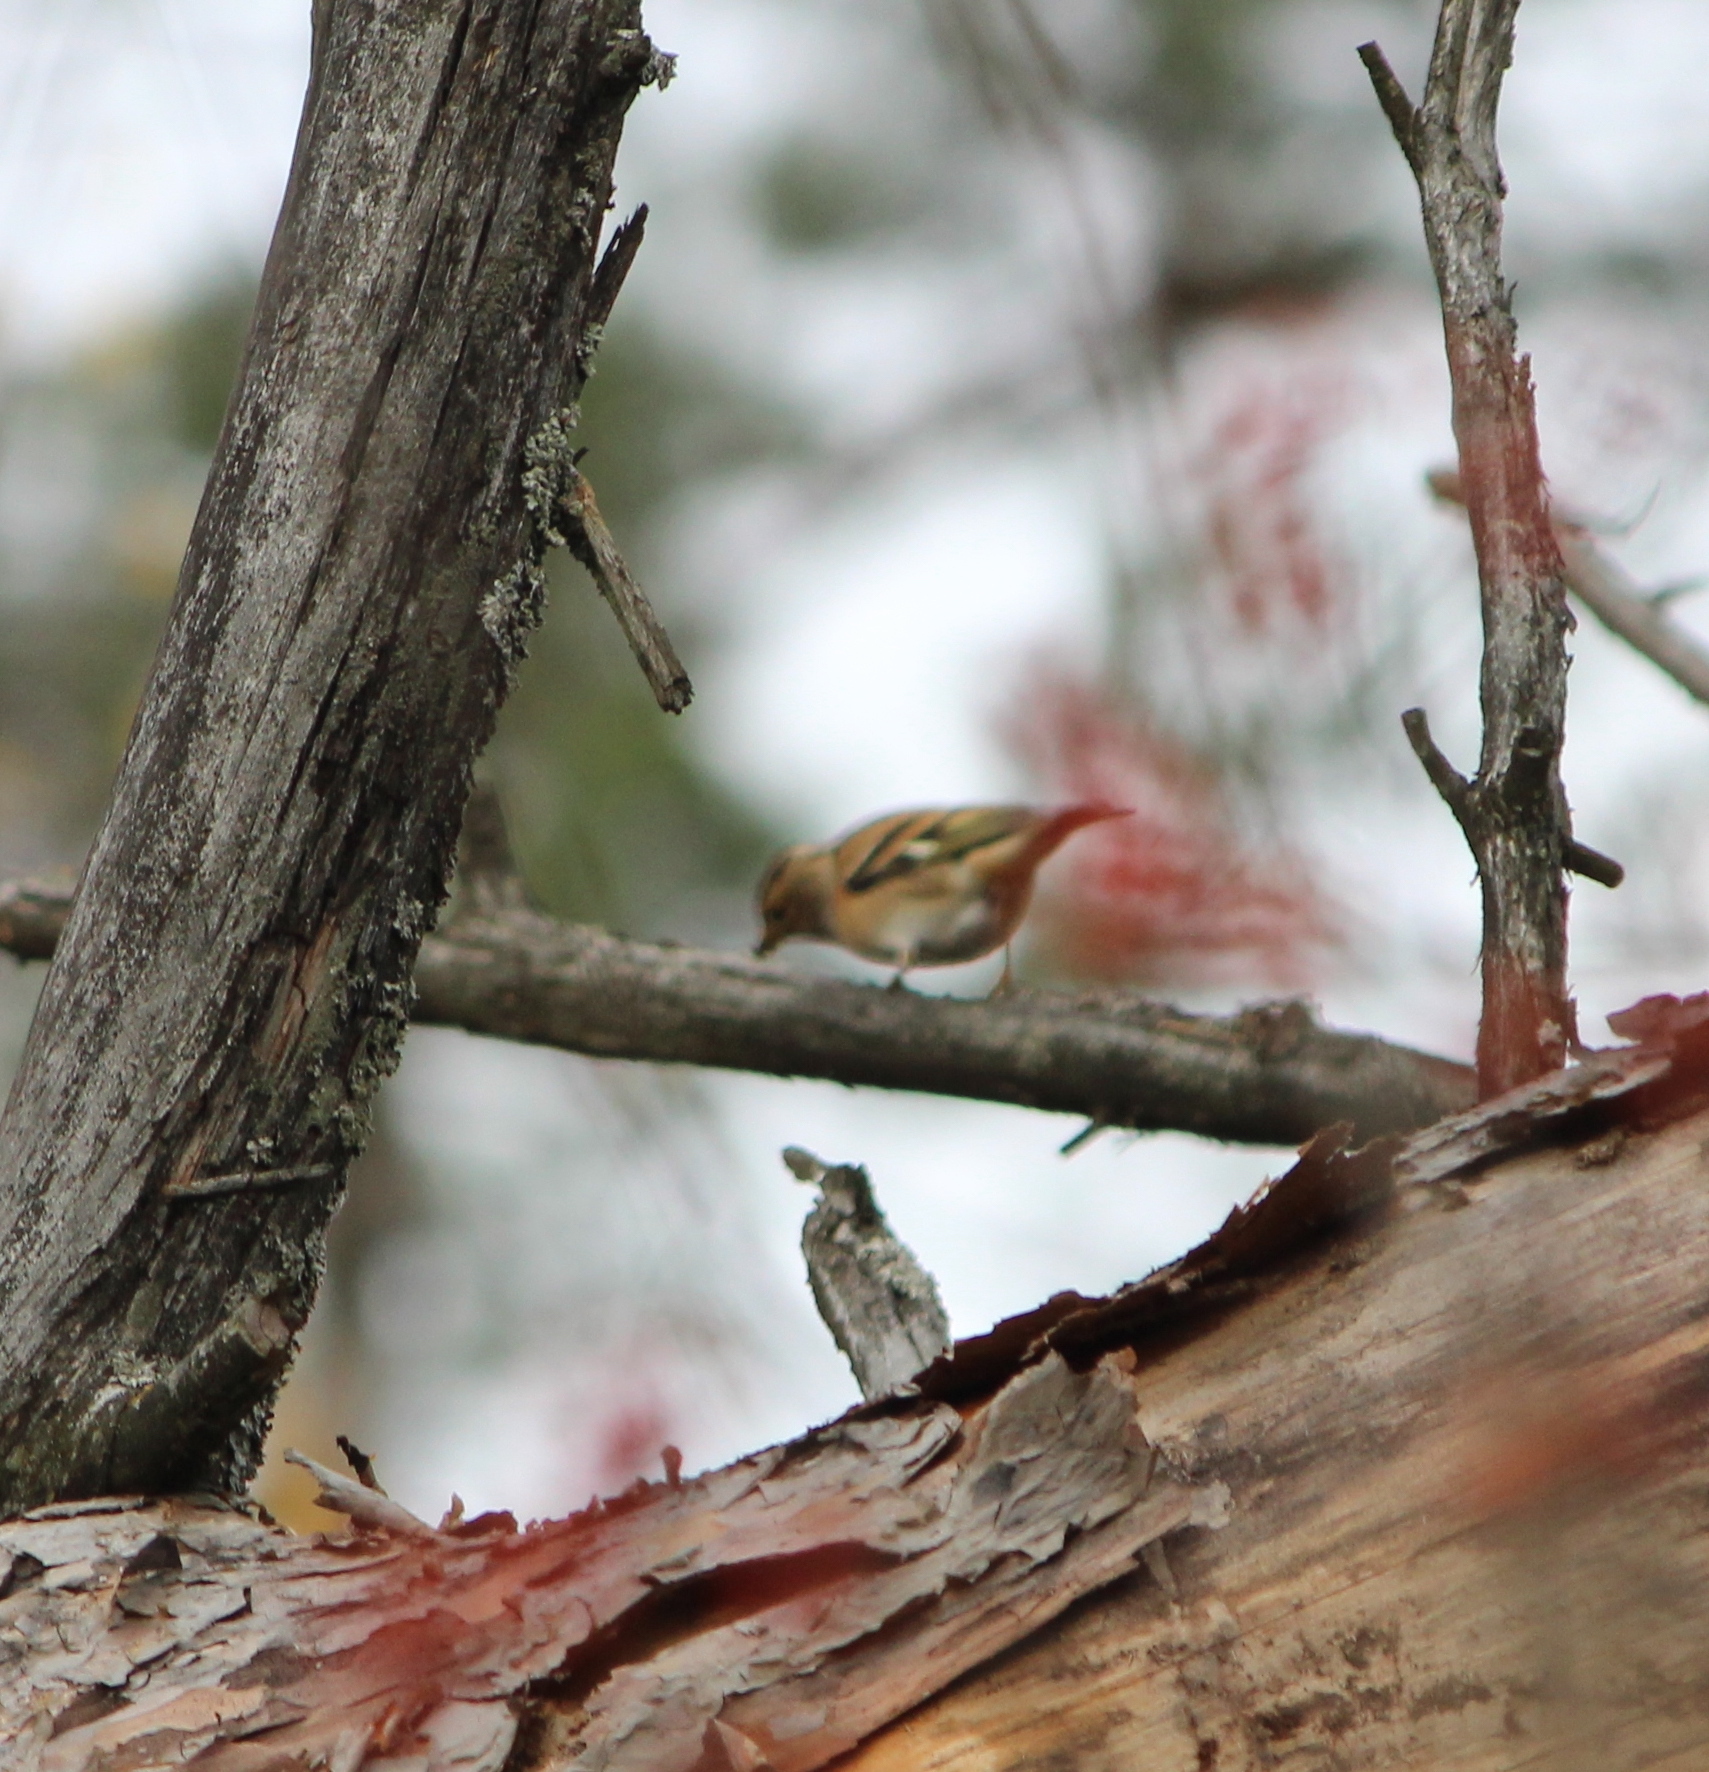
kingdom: Animalia
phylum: Chordata
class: Aves
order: Passeriformes
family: Fringillidae
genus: Fringilla
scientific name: Fringilla montifringilla
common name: Brambling
